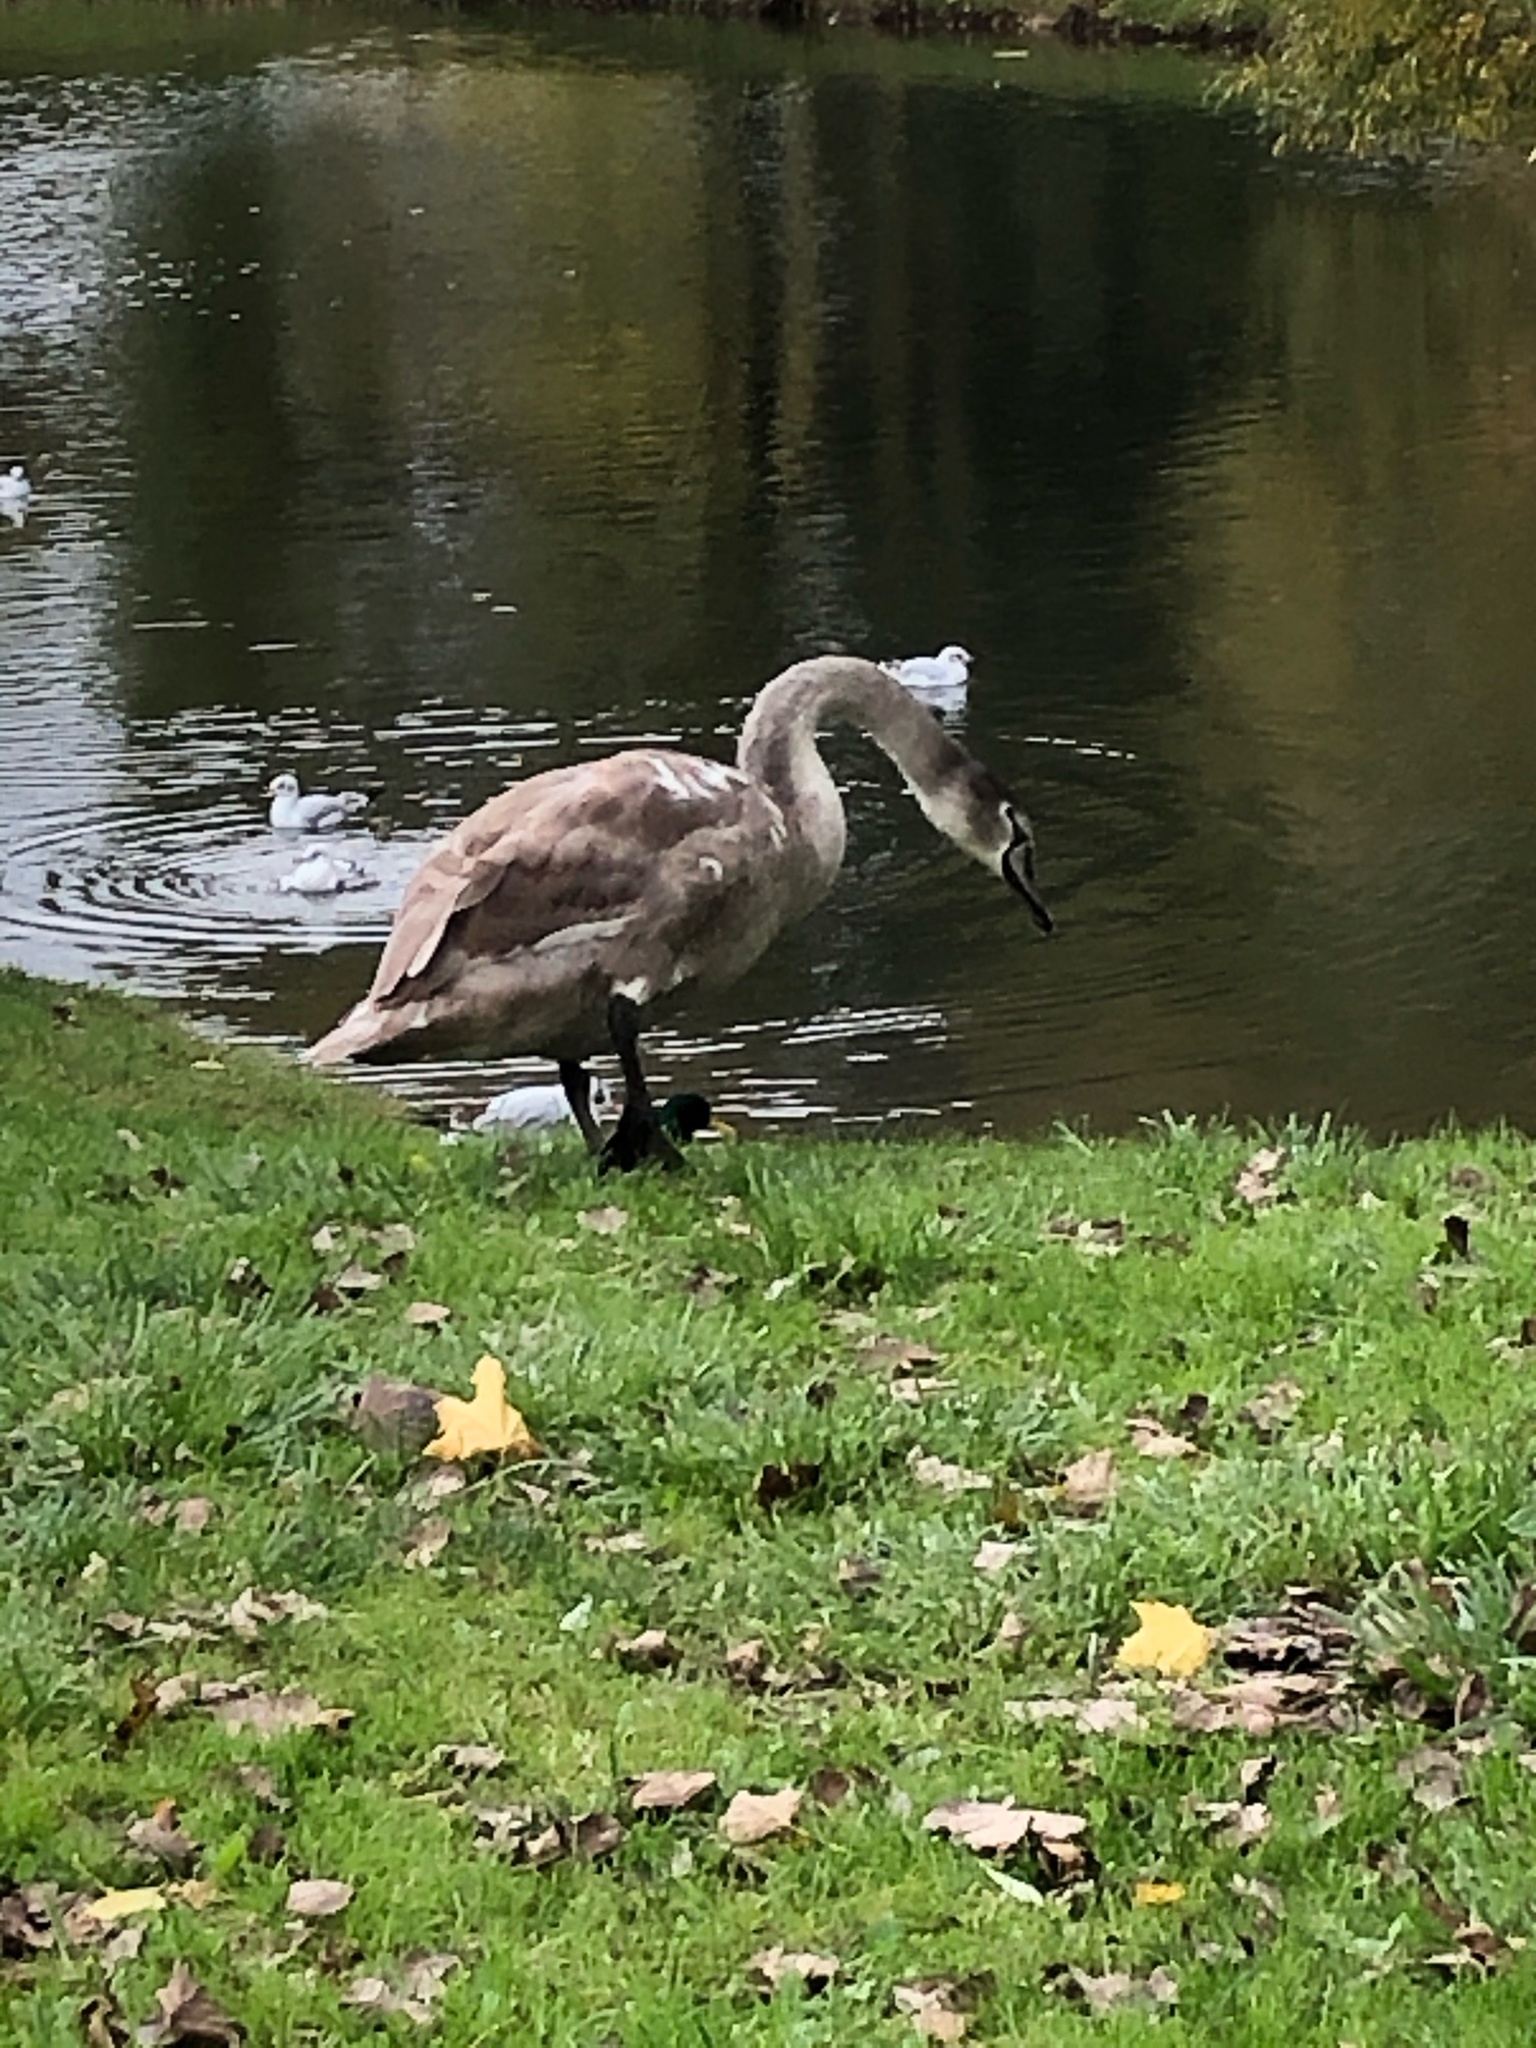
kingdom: Animalia
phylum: Chordata
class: Aves
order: Anseriformes
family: Anatidae
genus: Cygnus
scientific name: Cygnus olor
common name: Mute swan
